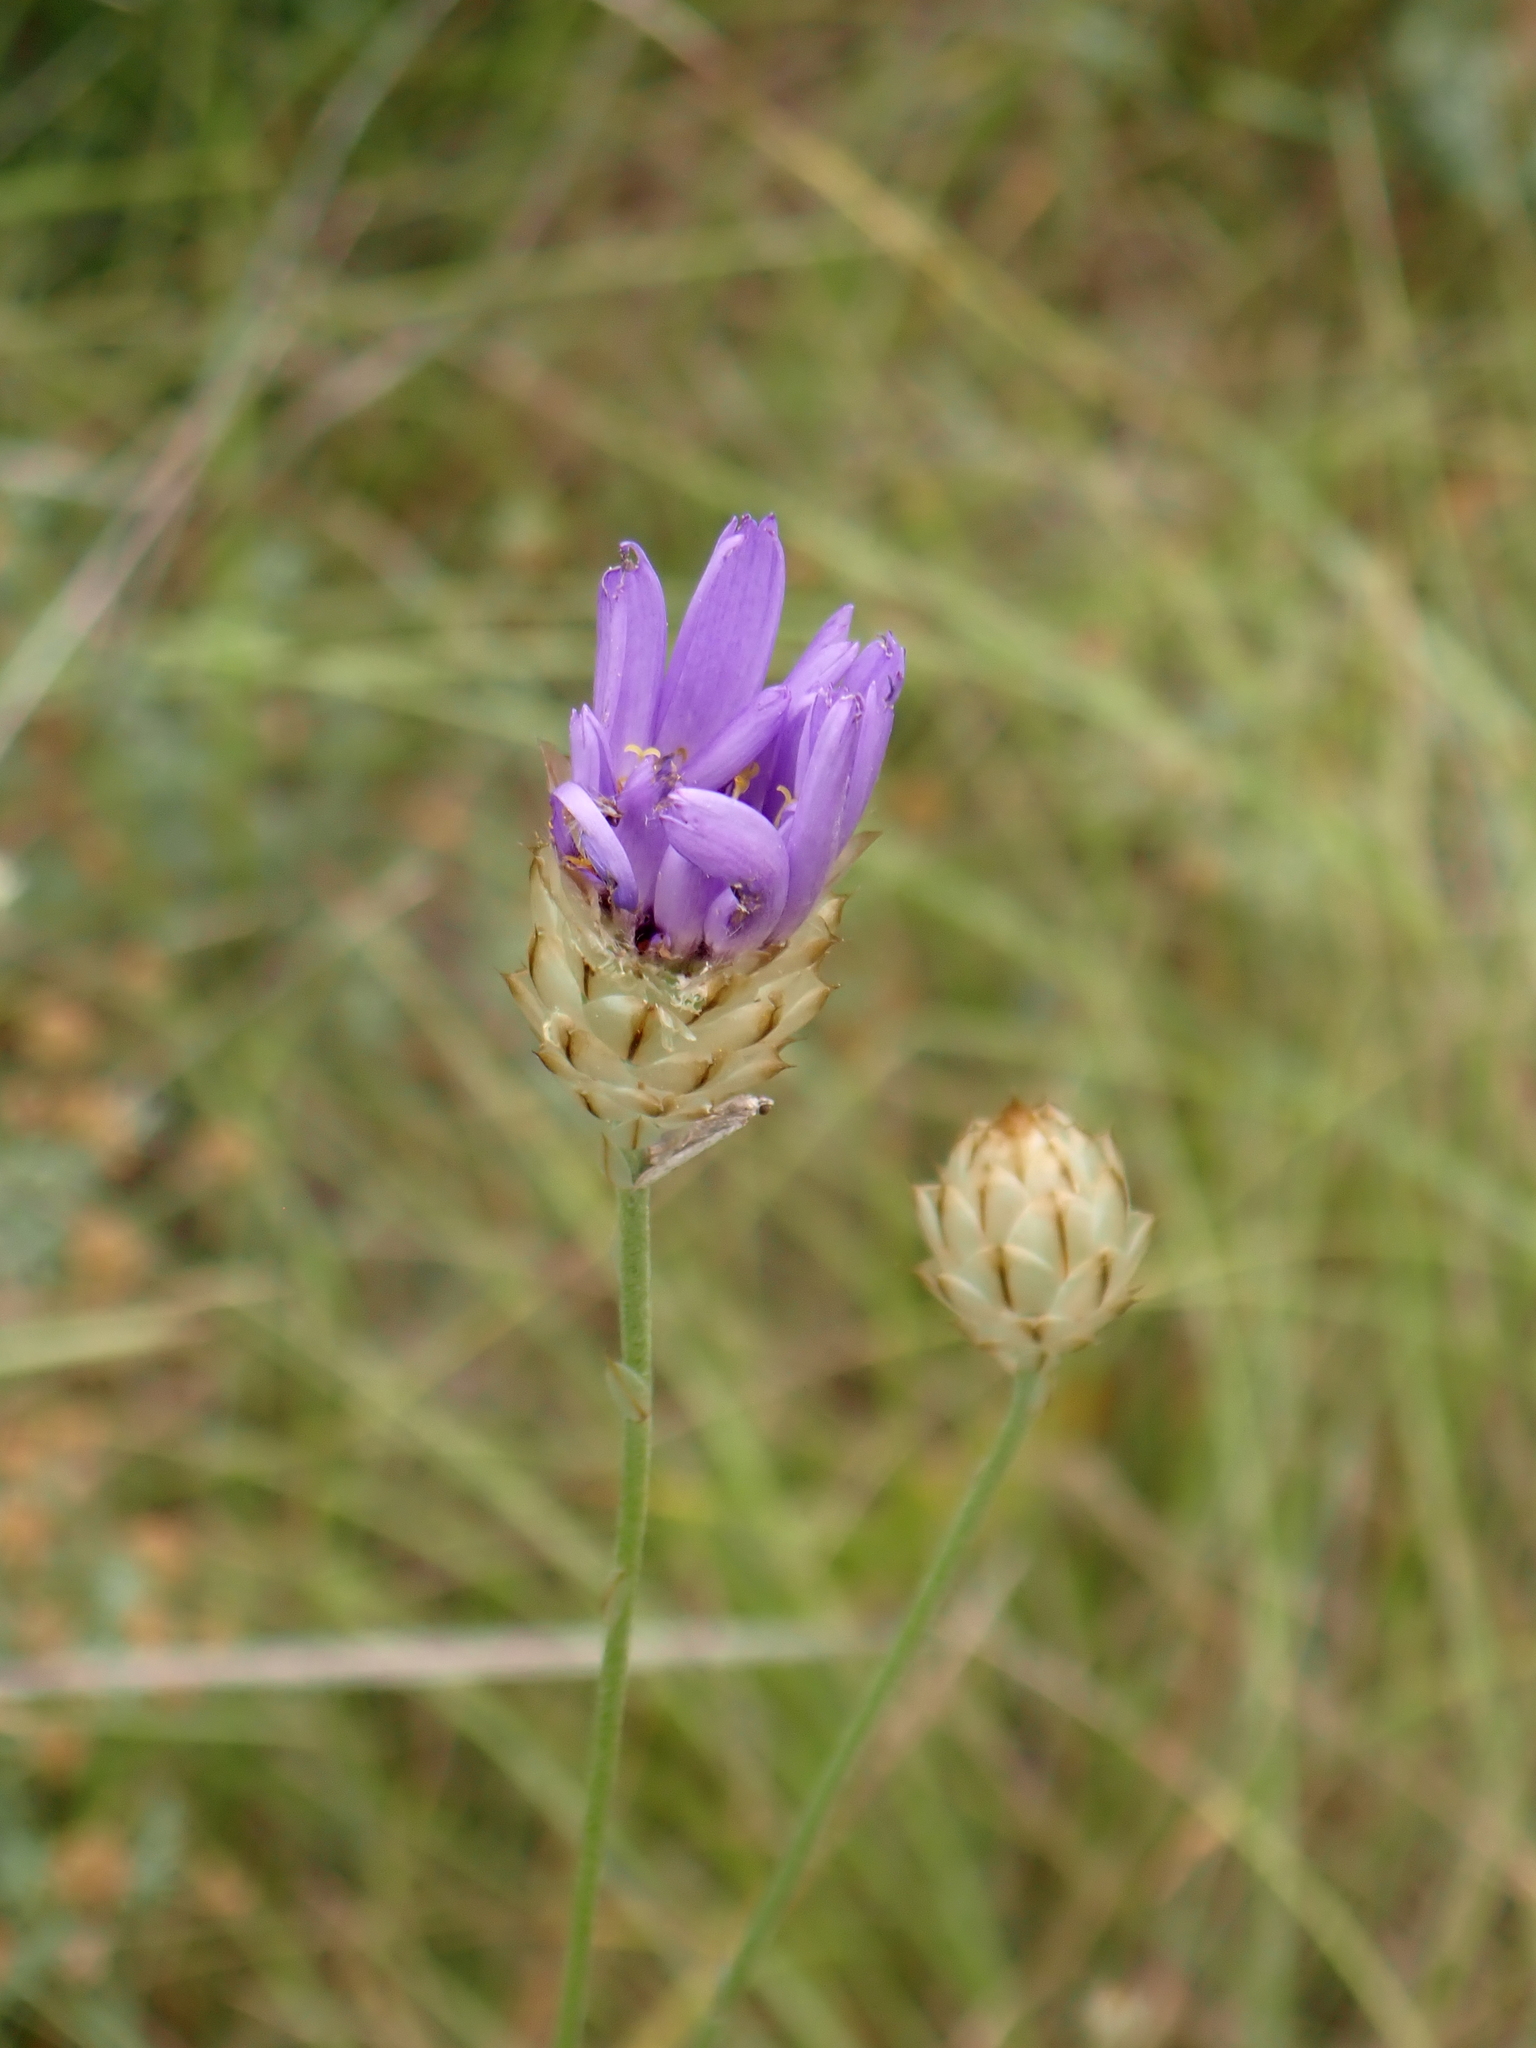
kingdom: Plantae
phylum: Tracheophyta
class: Magnoliopsida
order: Asterales
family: Asteraceae
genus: Catananche
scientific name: Catananche caerulea
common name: Blue cupidone
